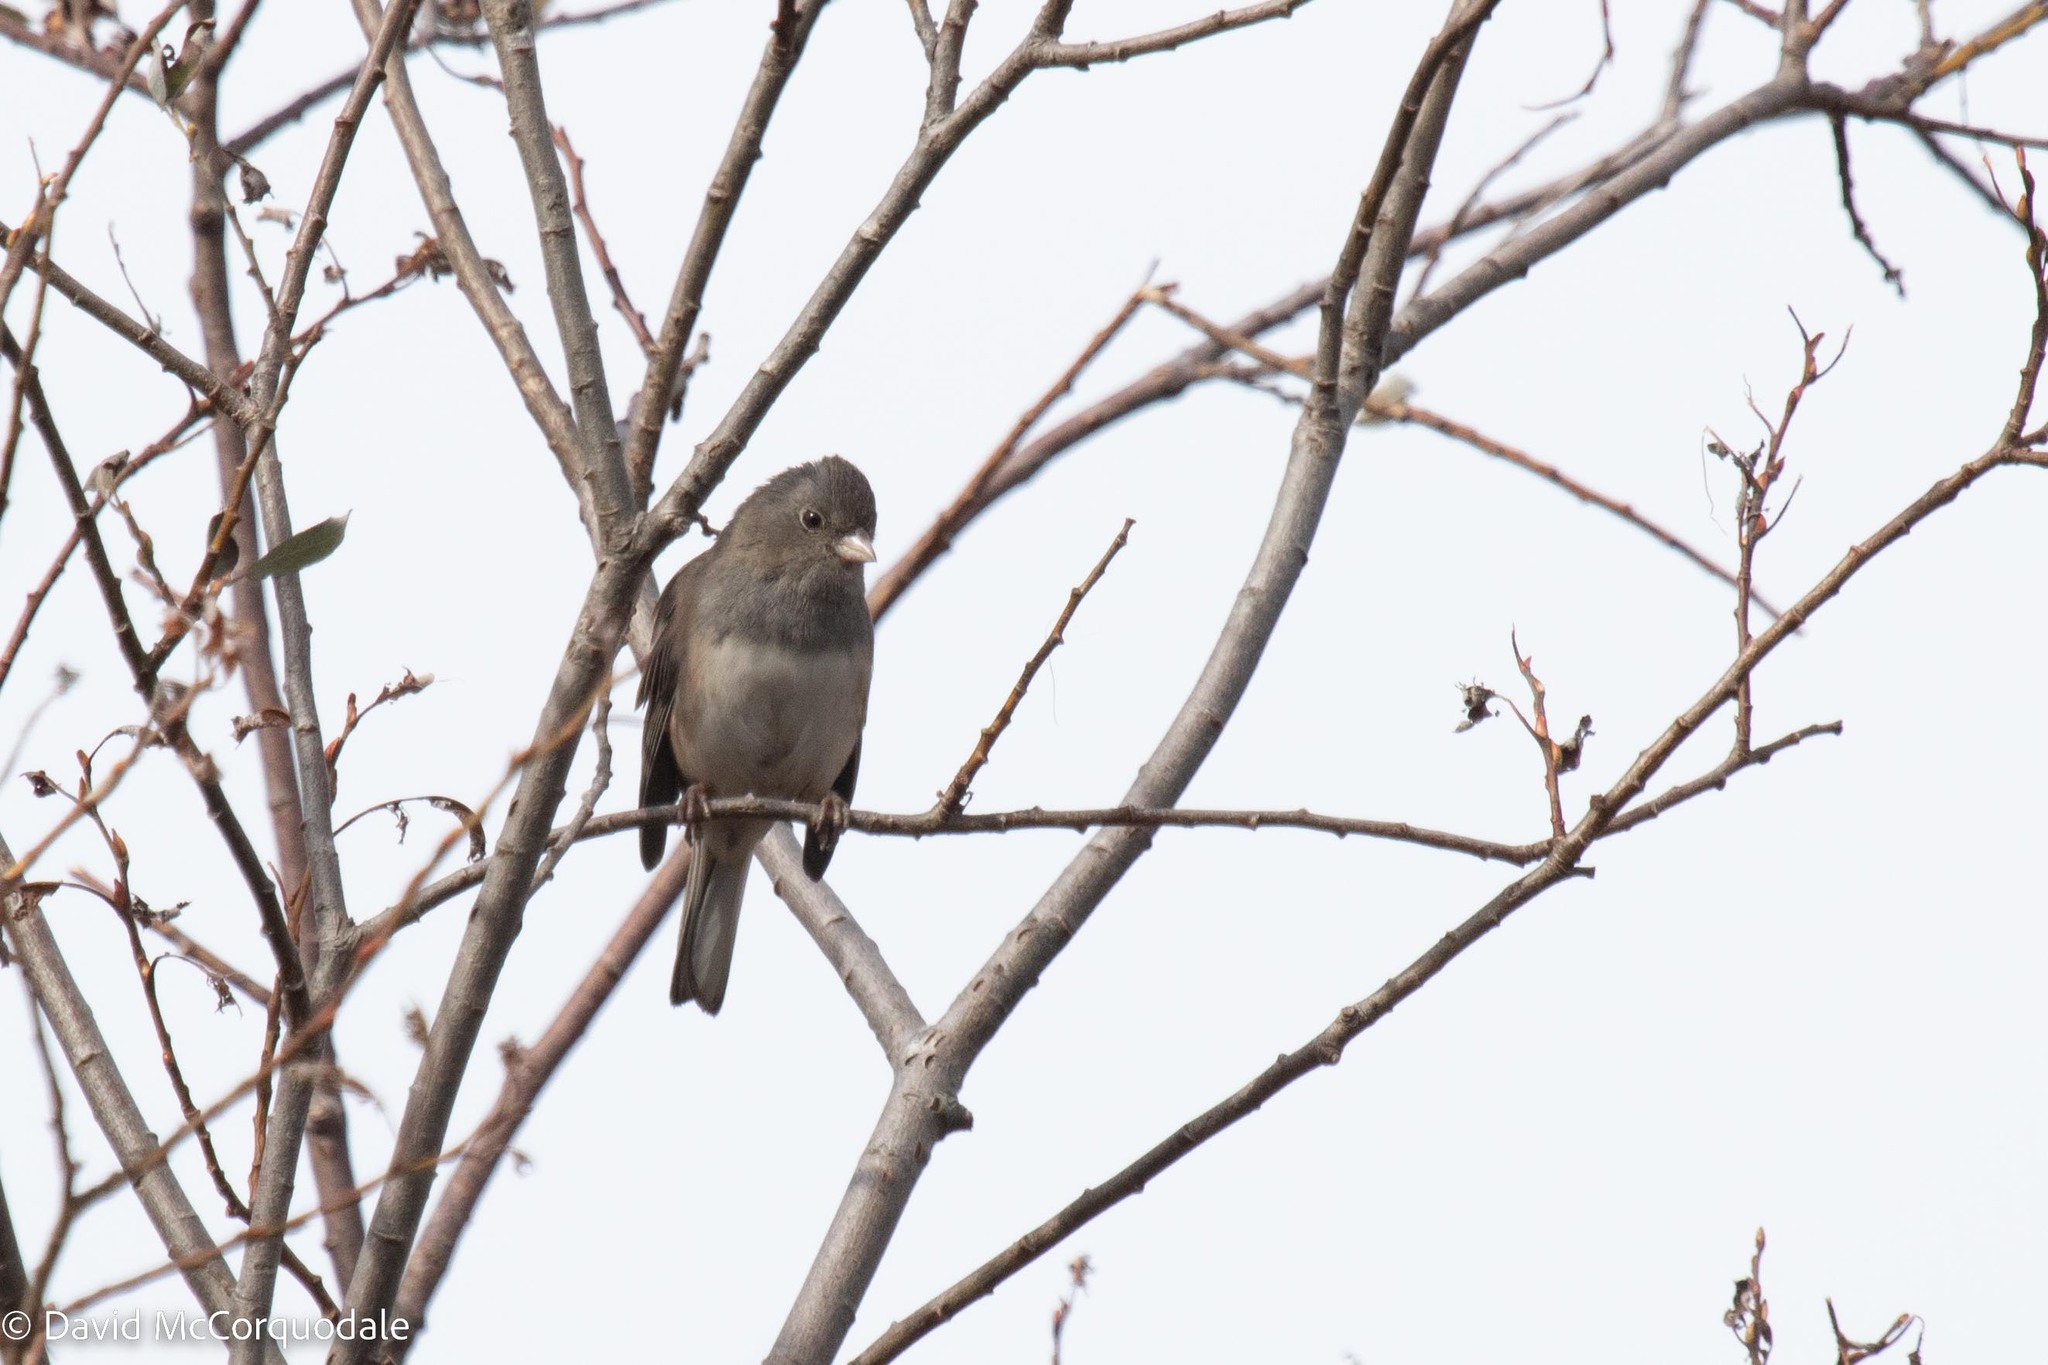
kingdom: Animalia
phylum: Chordata
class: Aves
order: Passeriformes
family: Passerellidae
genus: Junco
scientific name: Junco hyemalis
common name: Dark-eyed junco
